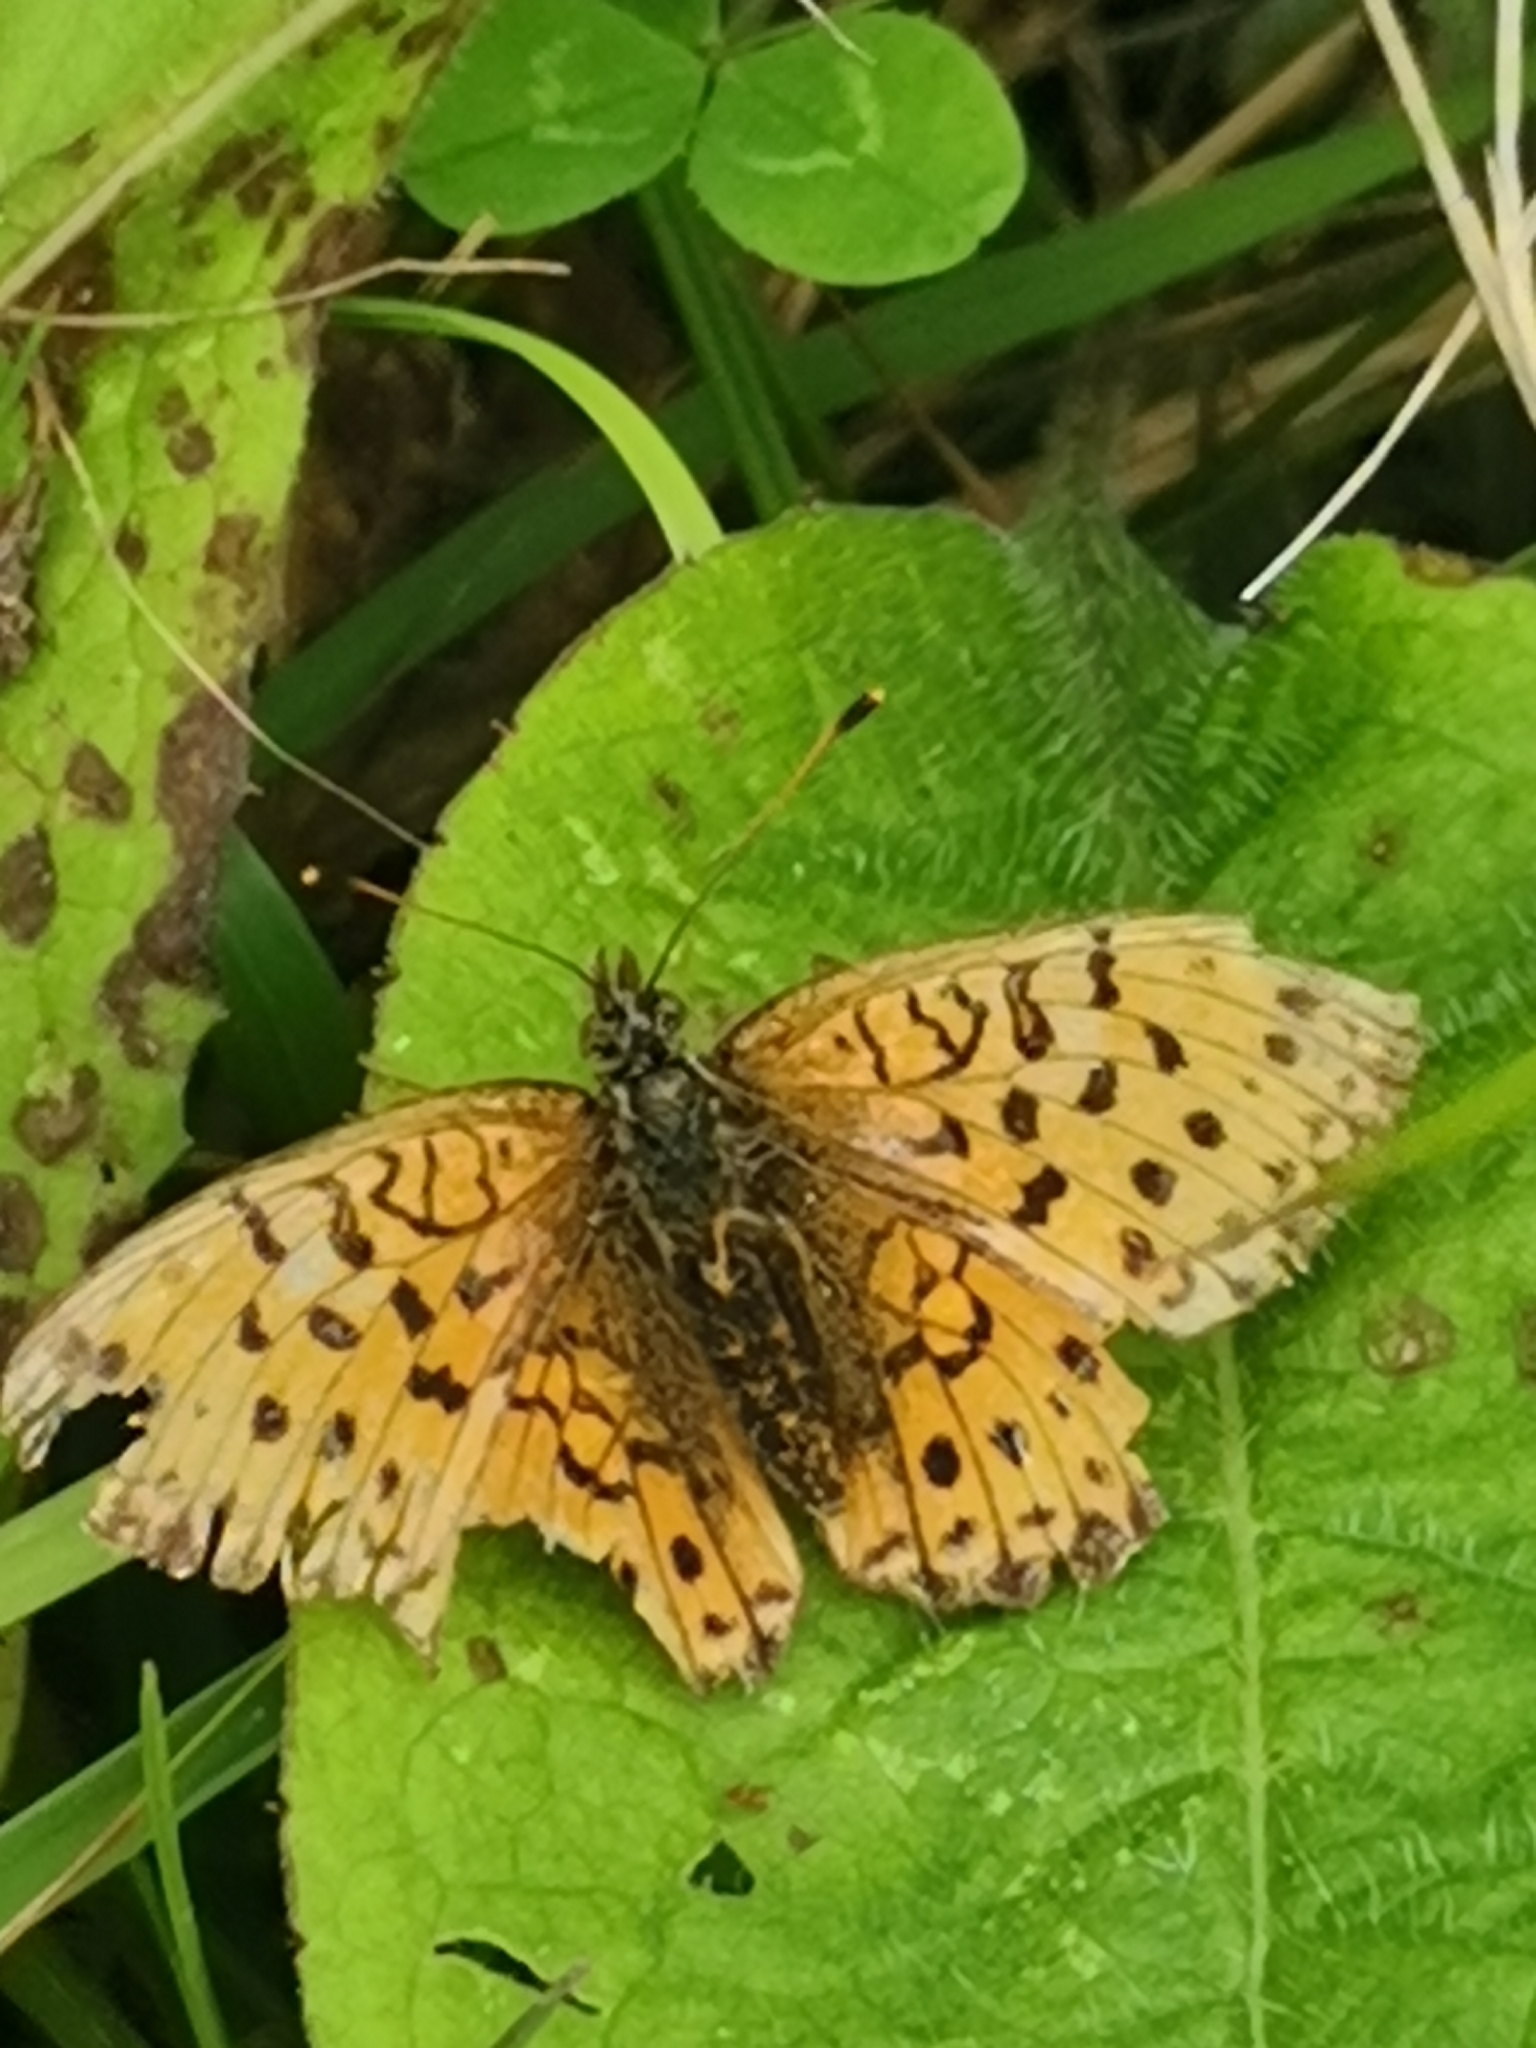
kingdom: Animalia
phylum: Arthropoda
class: Insecta
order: Lepidoptera
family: Nymphalidae
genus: Brenthis
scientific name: Brenthis ino
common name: Lesser marbled fritillary
